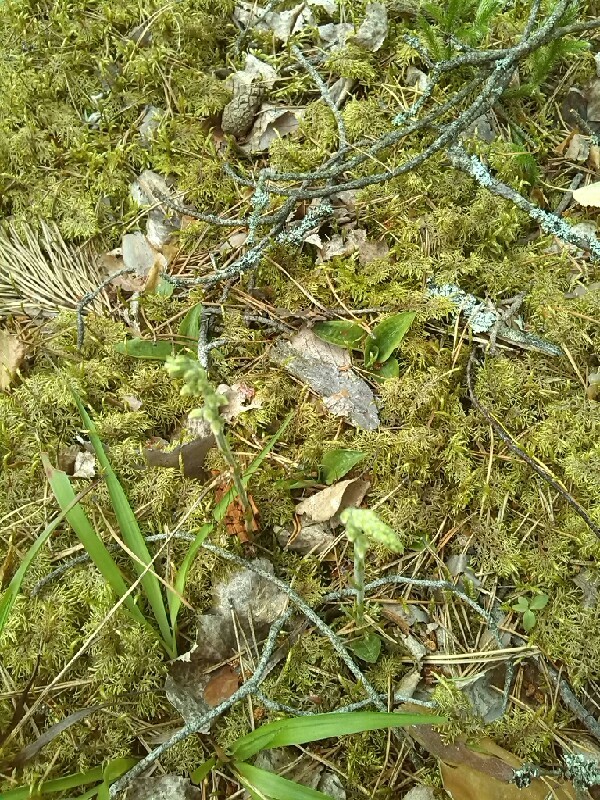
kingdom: Plantae
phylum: Tracheophyta
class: Liliopsida
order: Asparagales
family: Orchidaceae
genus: Goodyera
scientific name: Goodyera repens
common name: Creeping lady's-tresses
